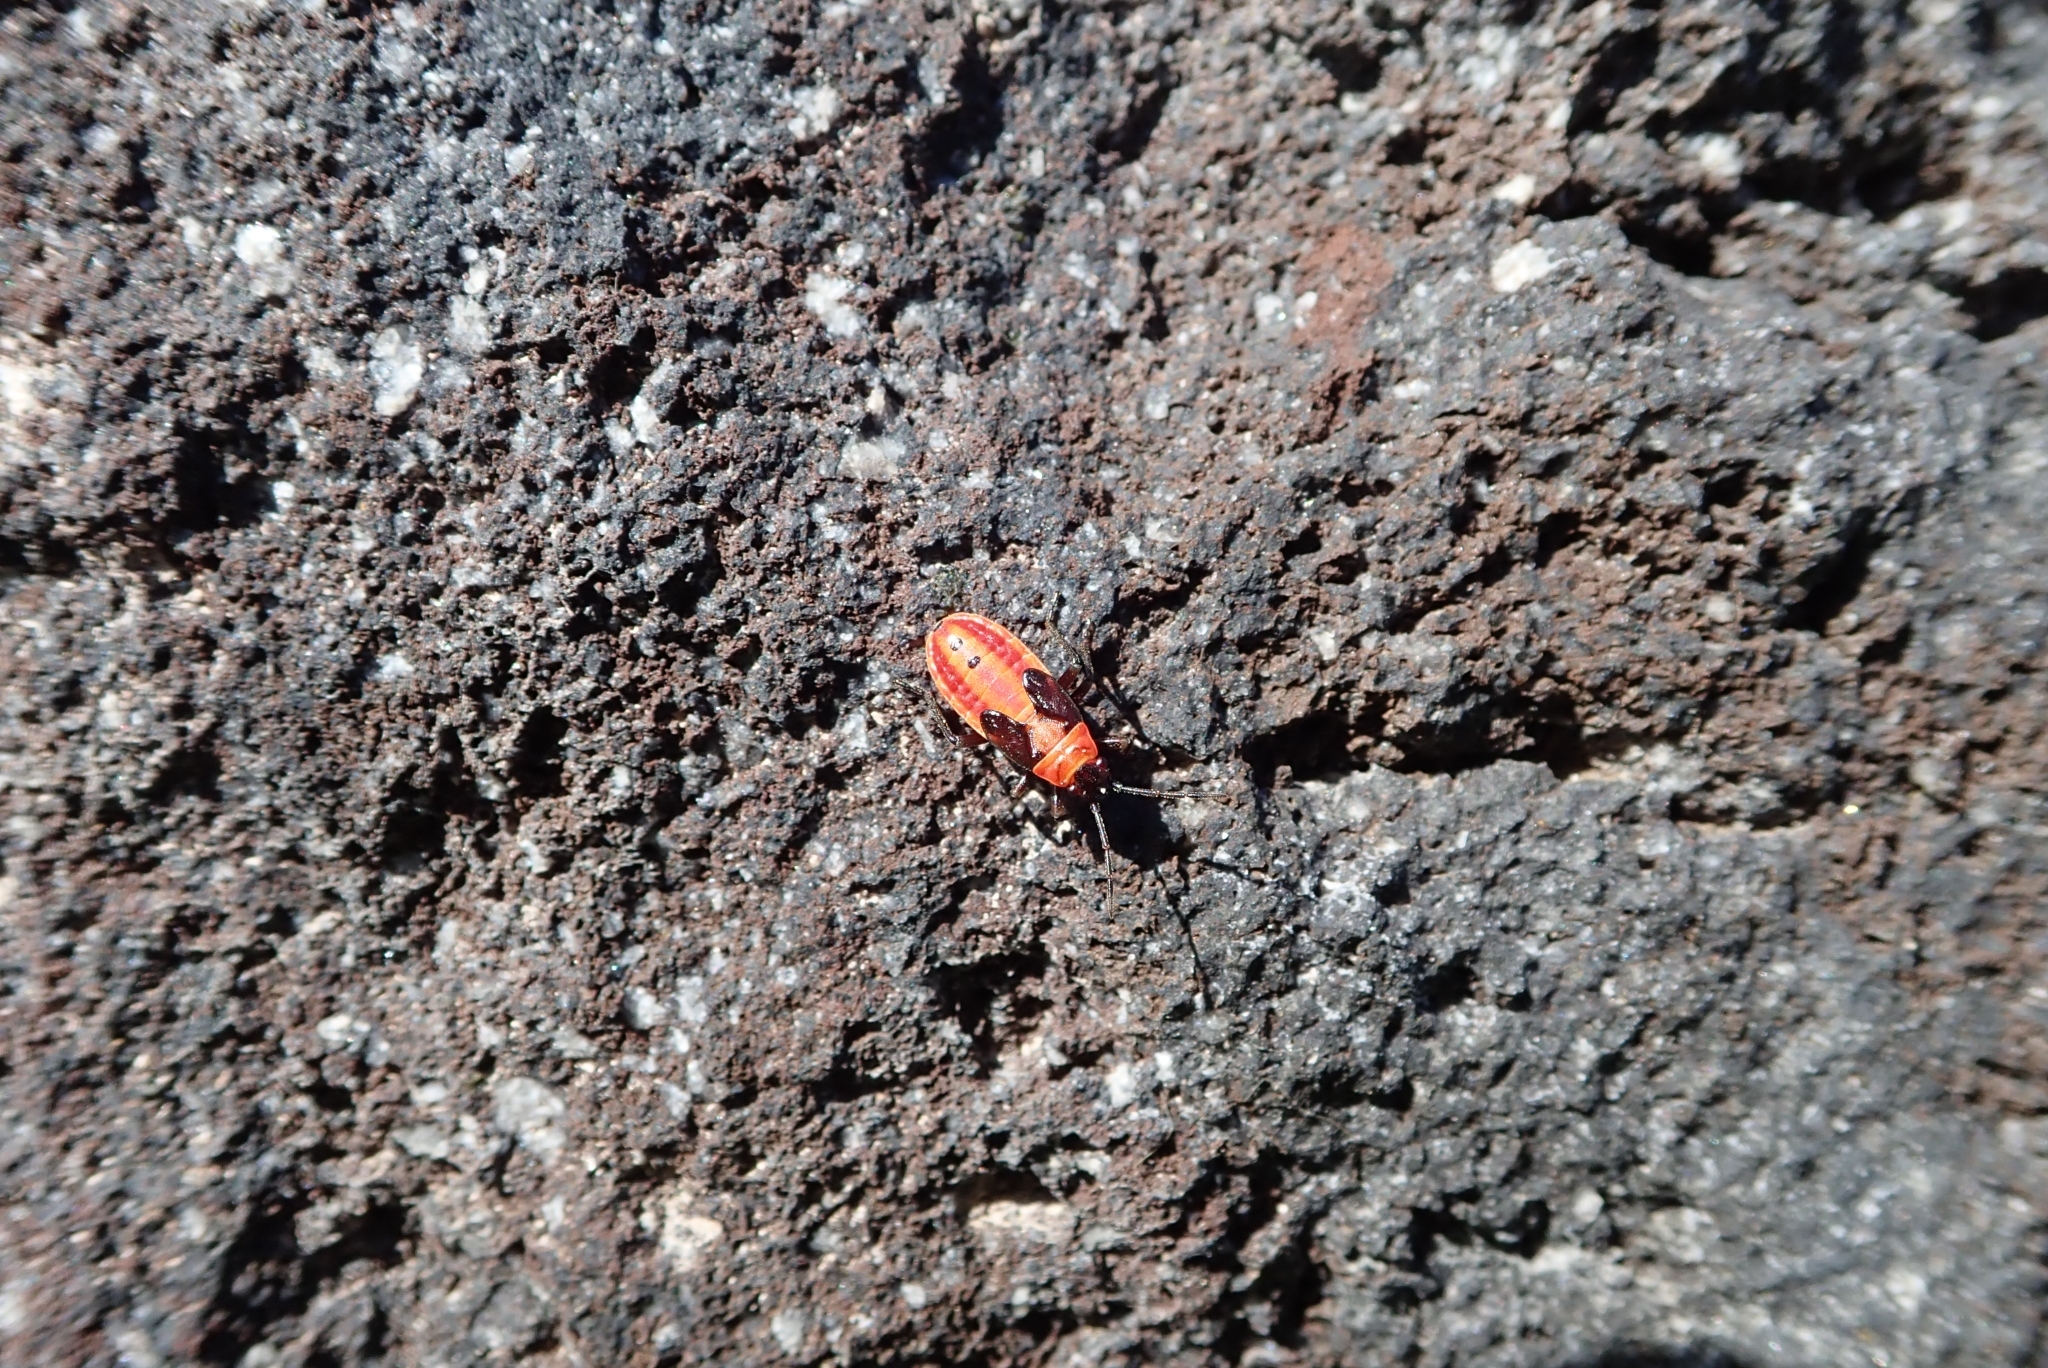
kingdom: Animalia
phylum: Arthropoda
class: Insecta
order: Hemiptera
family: Lygaeidae
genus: Spilostethus
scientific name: Spilostethus pandurus
